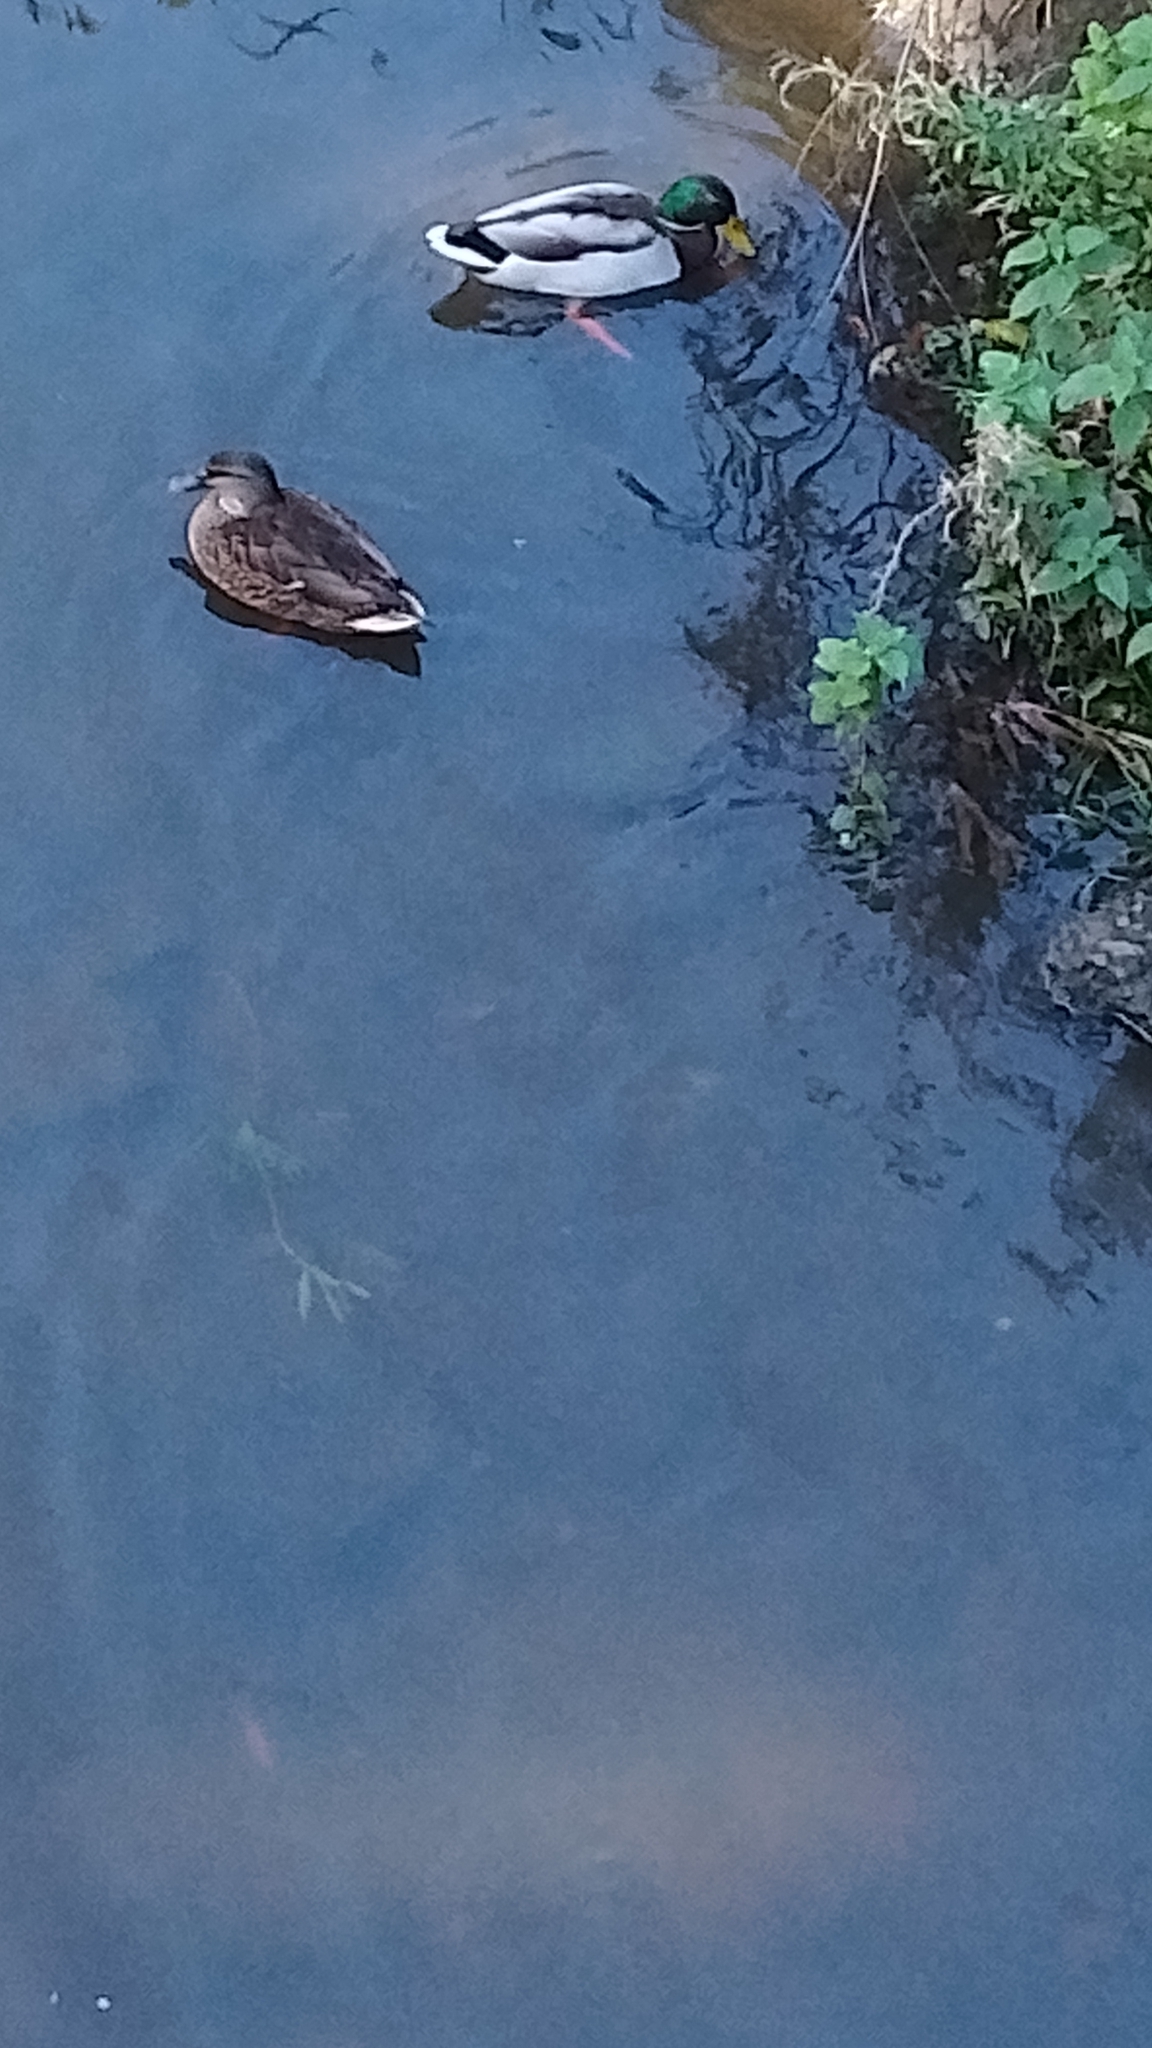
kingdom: Animalia
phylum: Chordata
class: Aves
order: Anseriformes
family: Anatidae
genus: Anas
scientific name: Anas platyrhynchos
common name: Mallard
